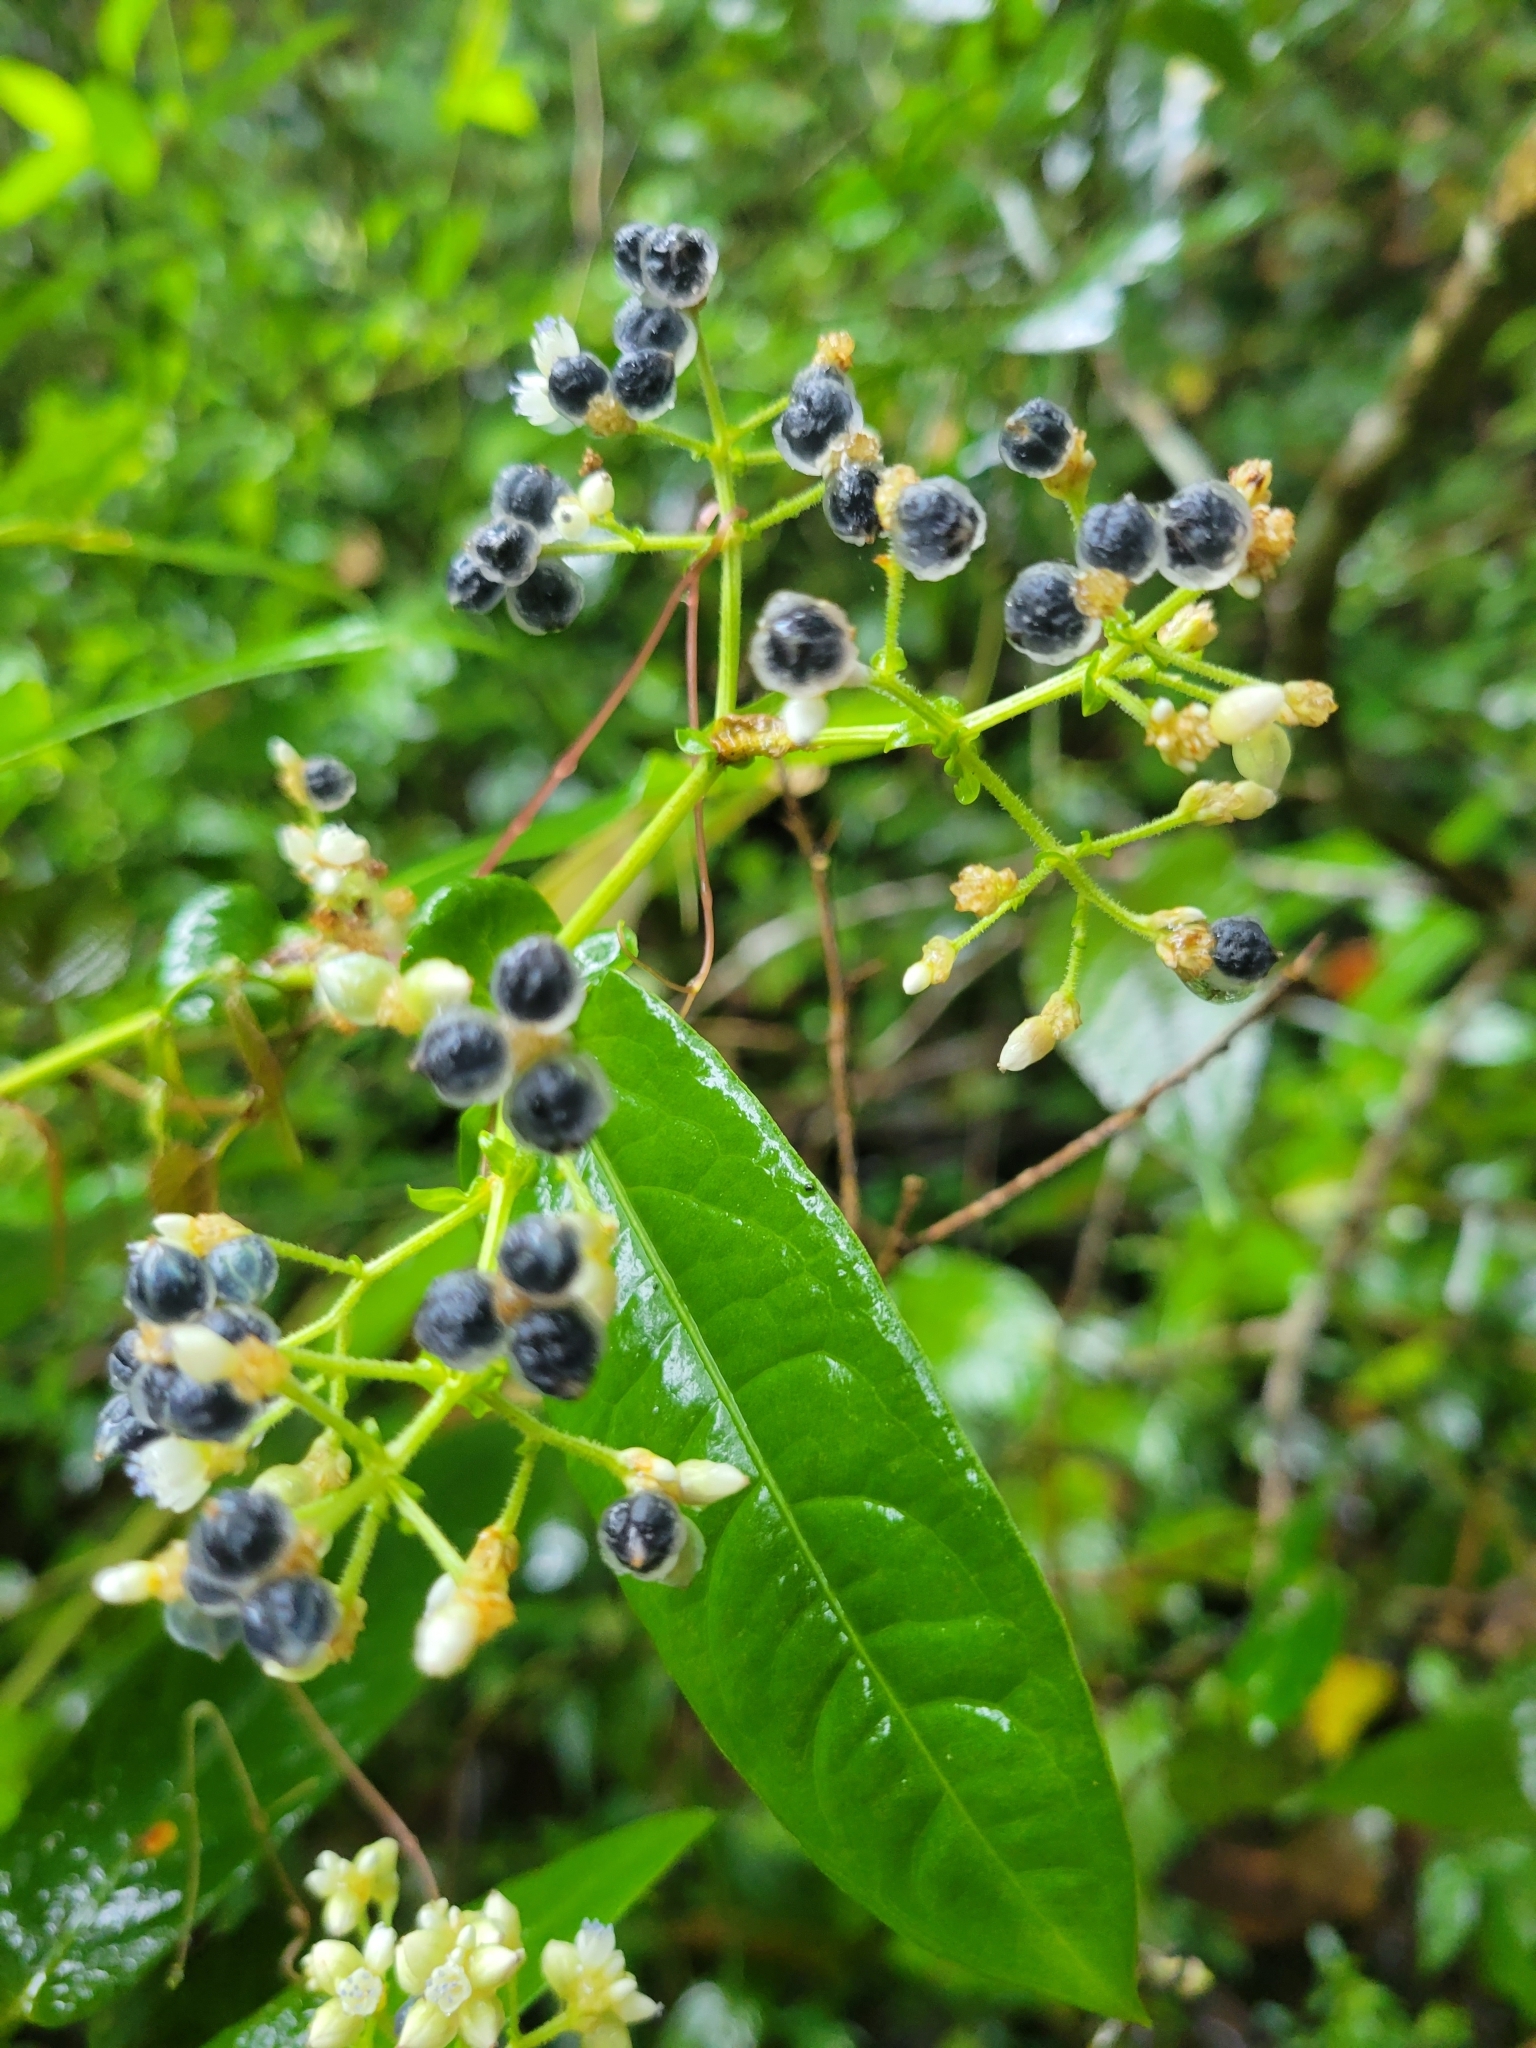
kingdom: Plantae
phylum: Tracheophyta
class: Magnoliopsida
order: Caryophyllales
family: Polygonaceae
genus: Persicaria
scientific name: Persicaria chinensis
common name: Chinese knotweed
